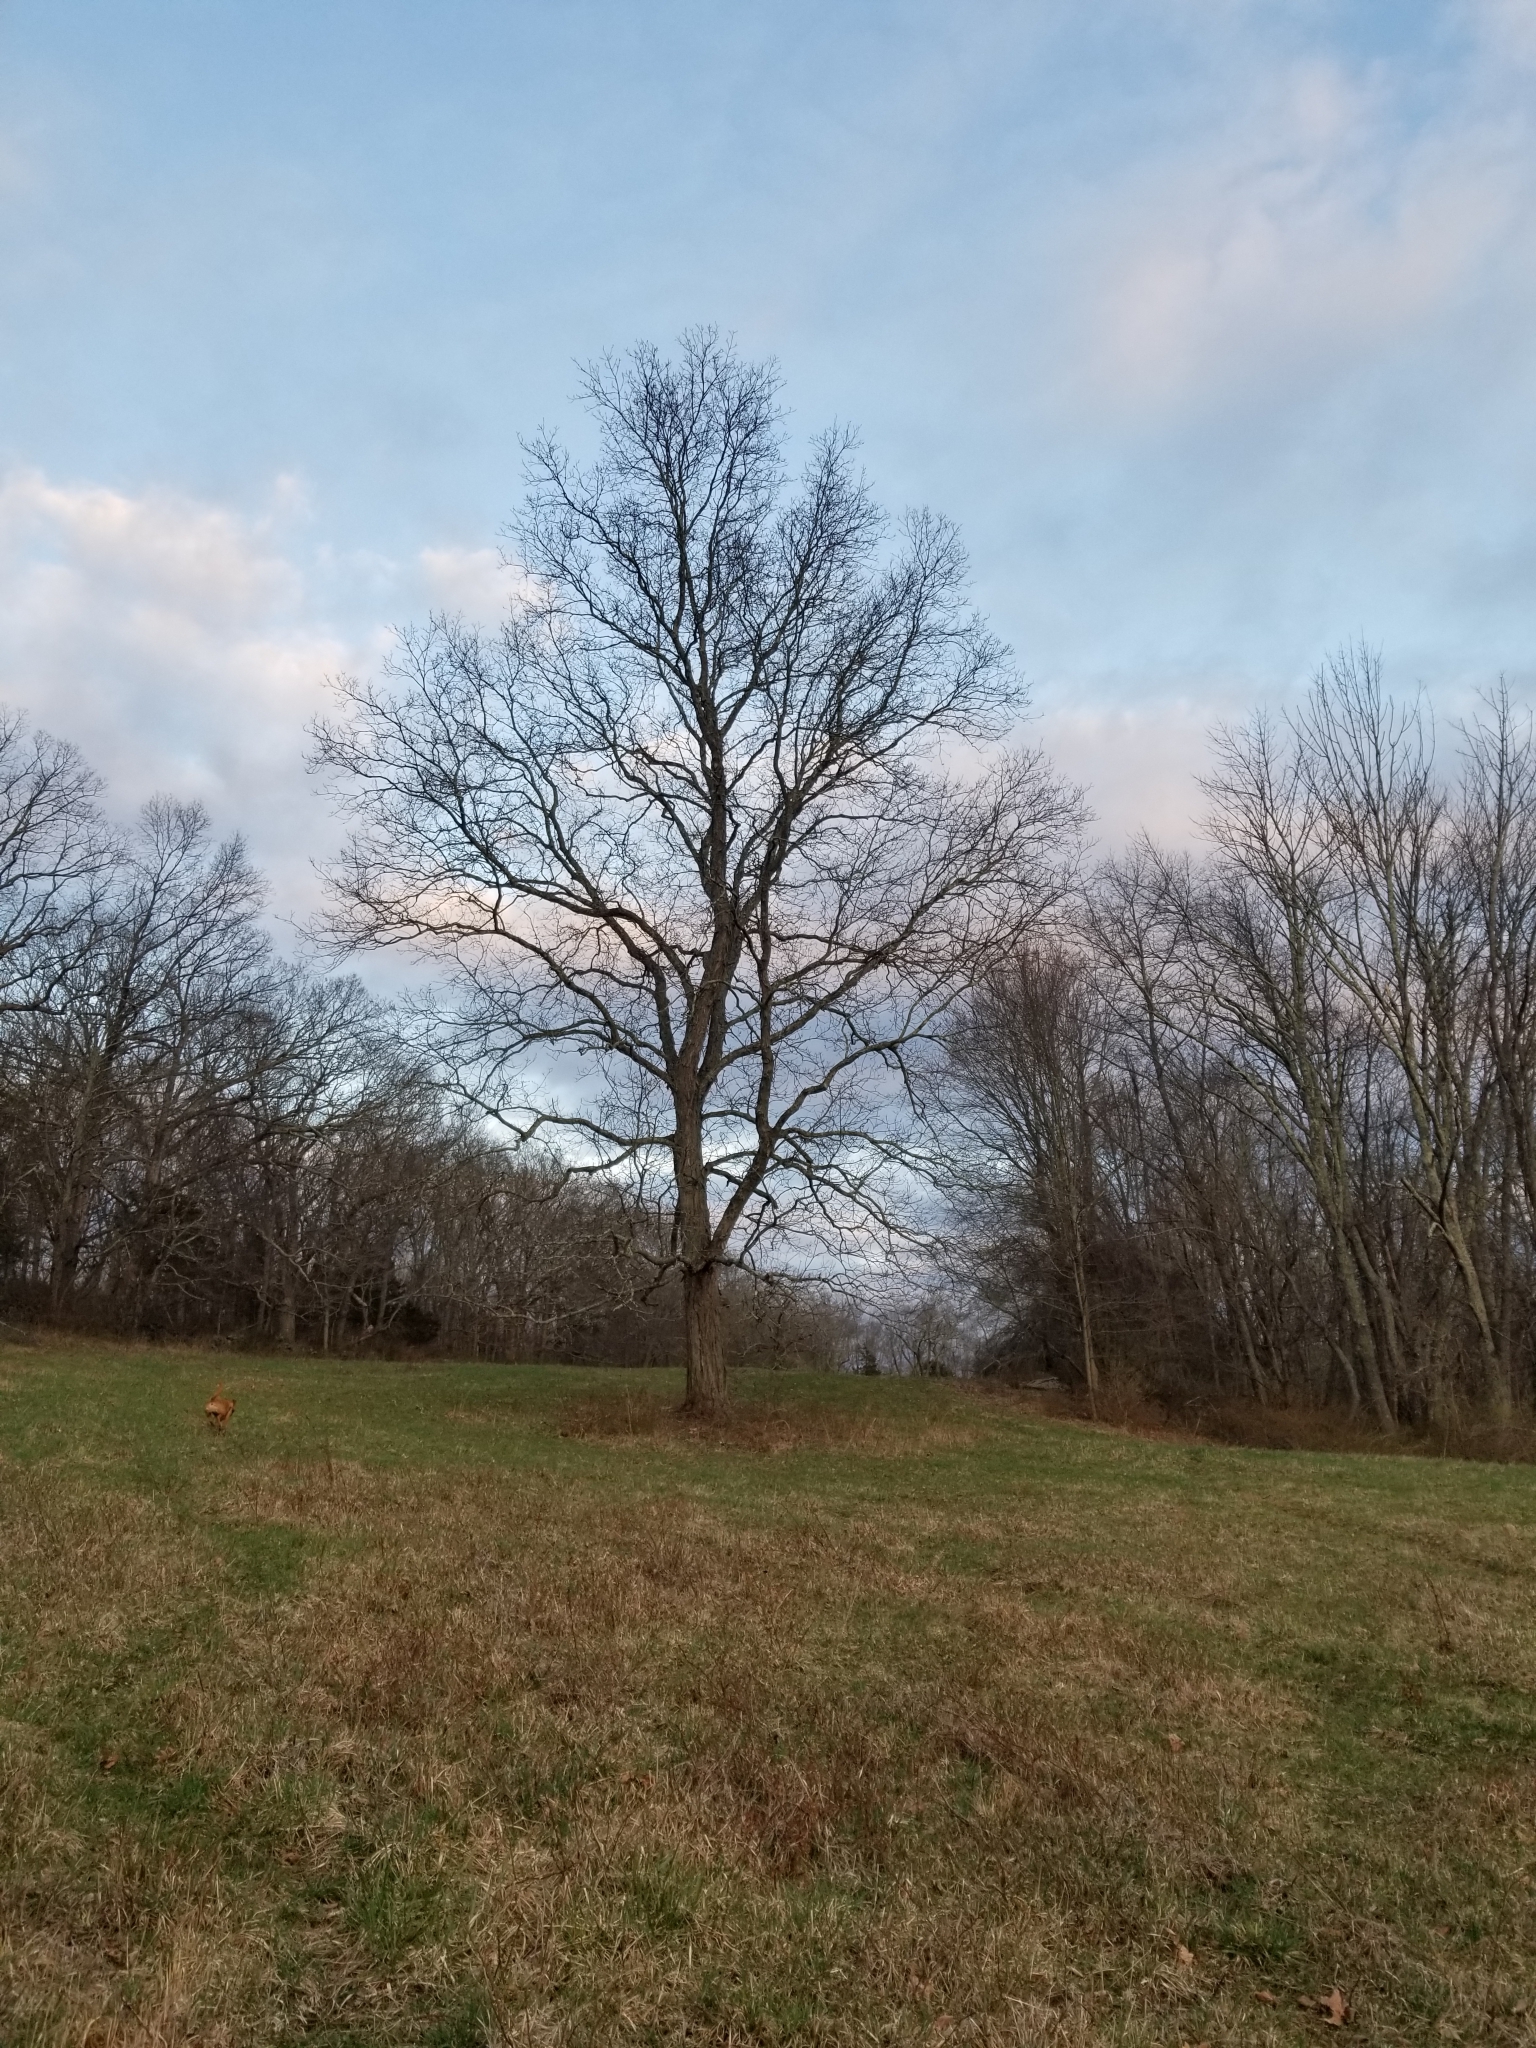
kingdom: Plantae
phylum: Tracheophyta
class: Magnoliopsida
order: Fagales
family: Juglandaceae
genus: Carya
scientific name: Carya ovata
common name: Shagbark hickory
